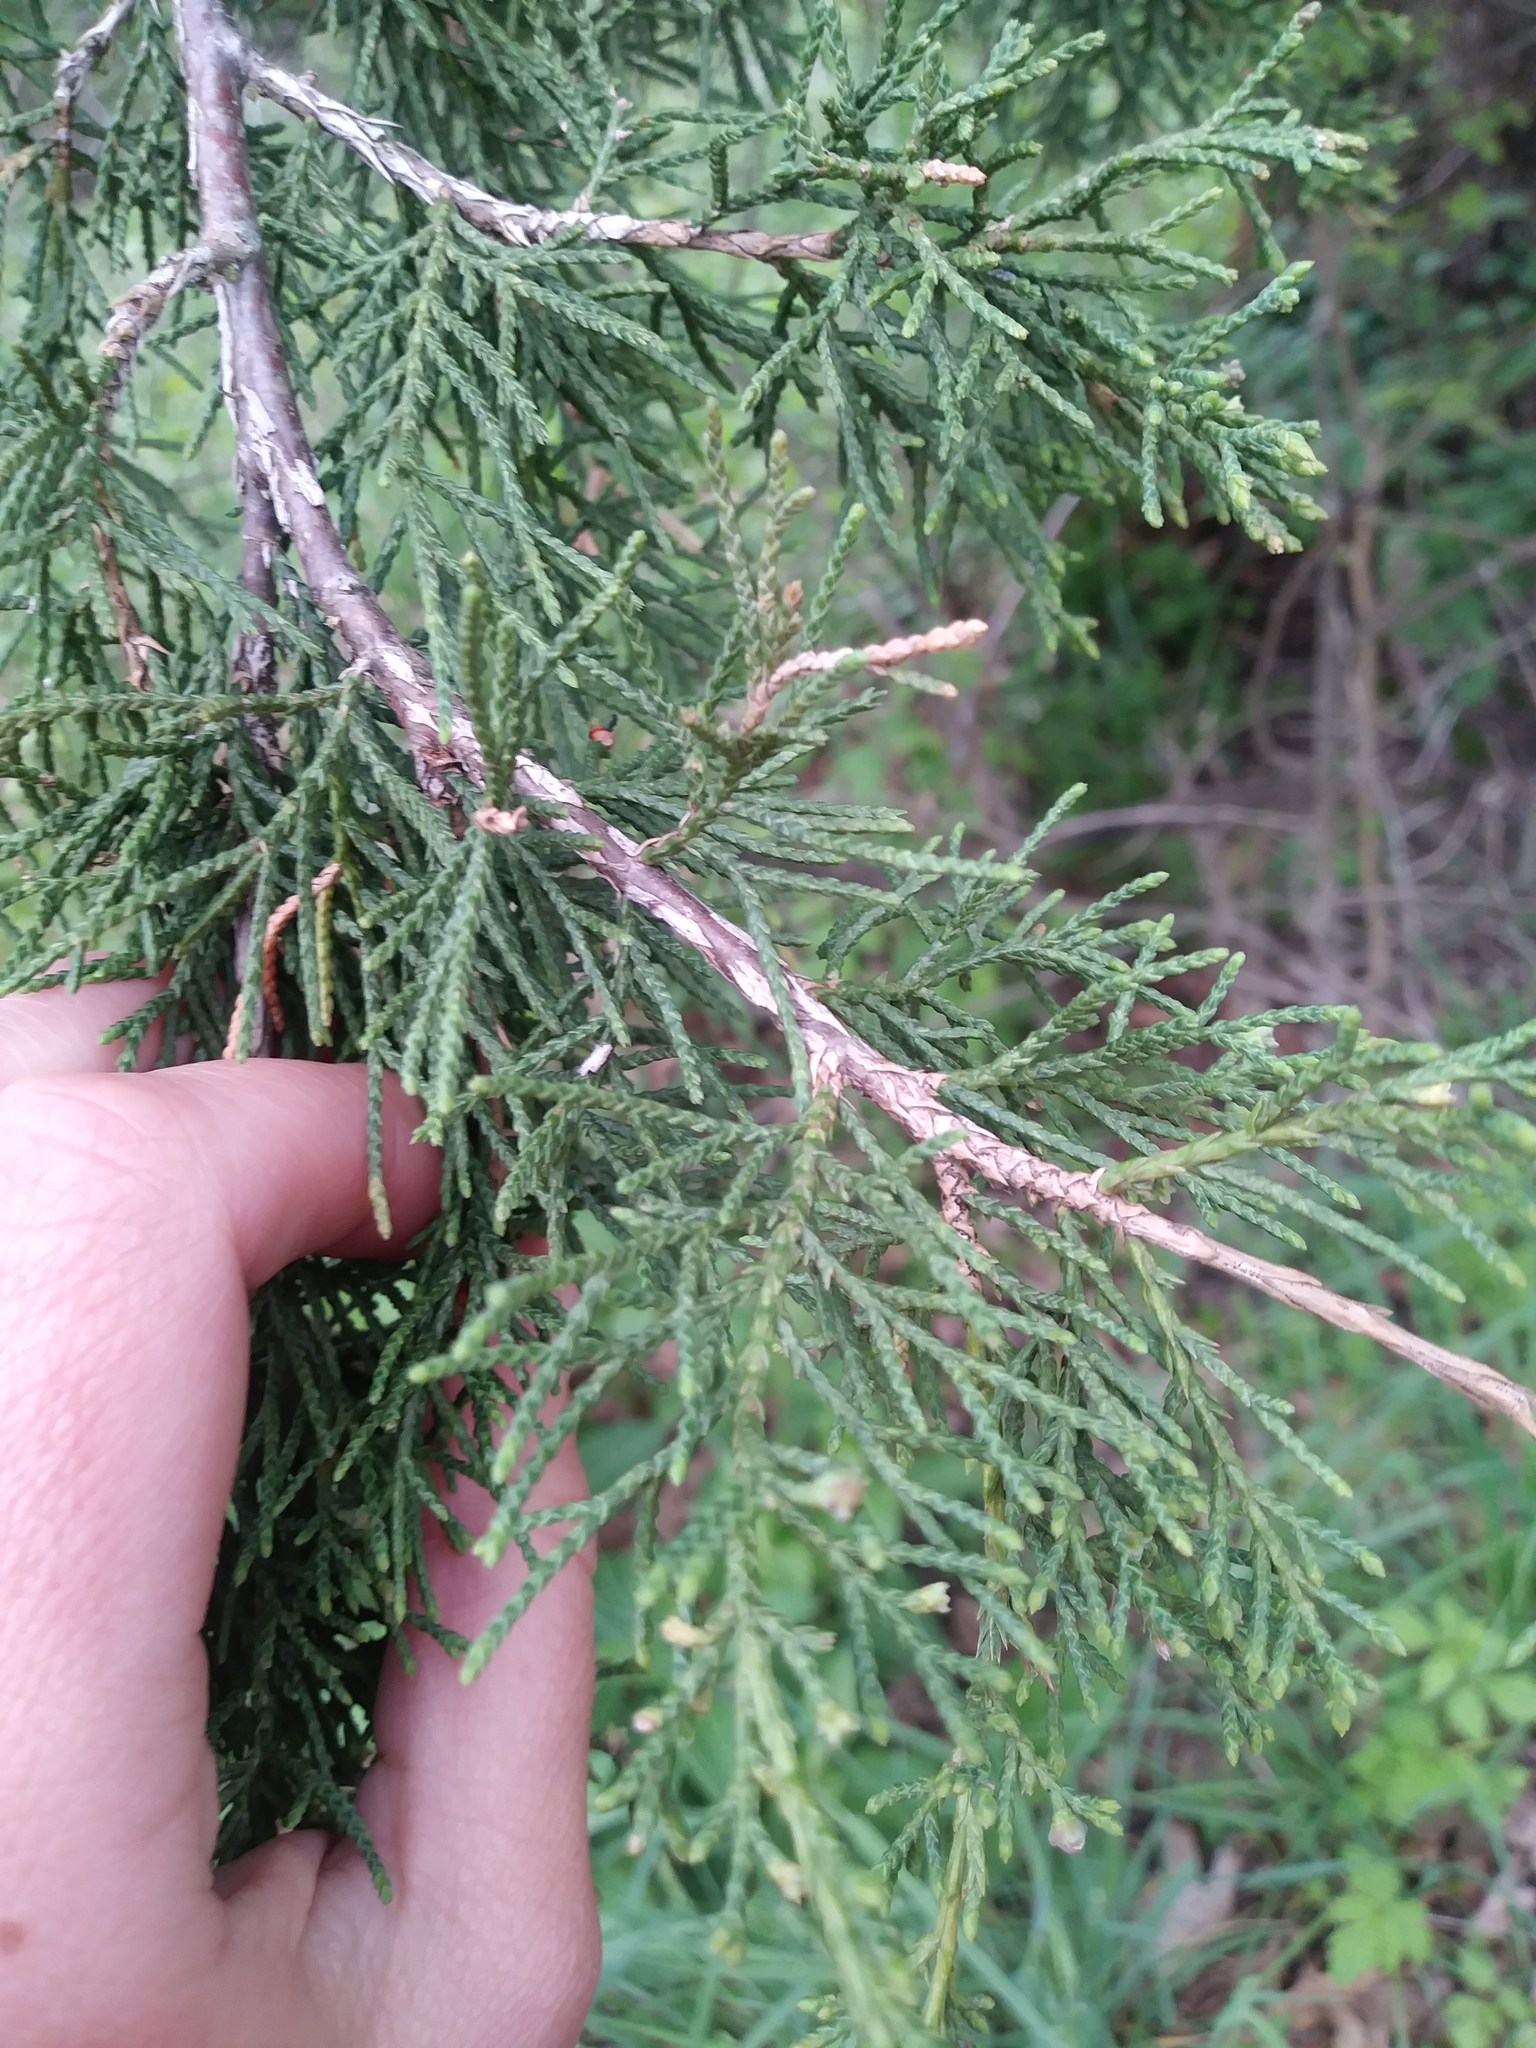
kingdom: Plantae
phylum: Tracheophyta
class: Pinopsida
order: Pinales
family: Cupressaceae
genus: Juniperus
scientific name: Juniperus virginiana
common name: Red juniper
